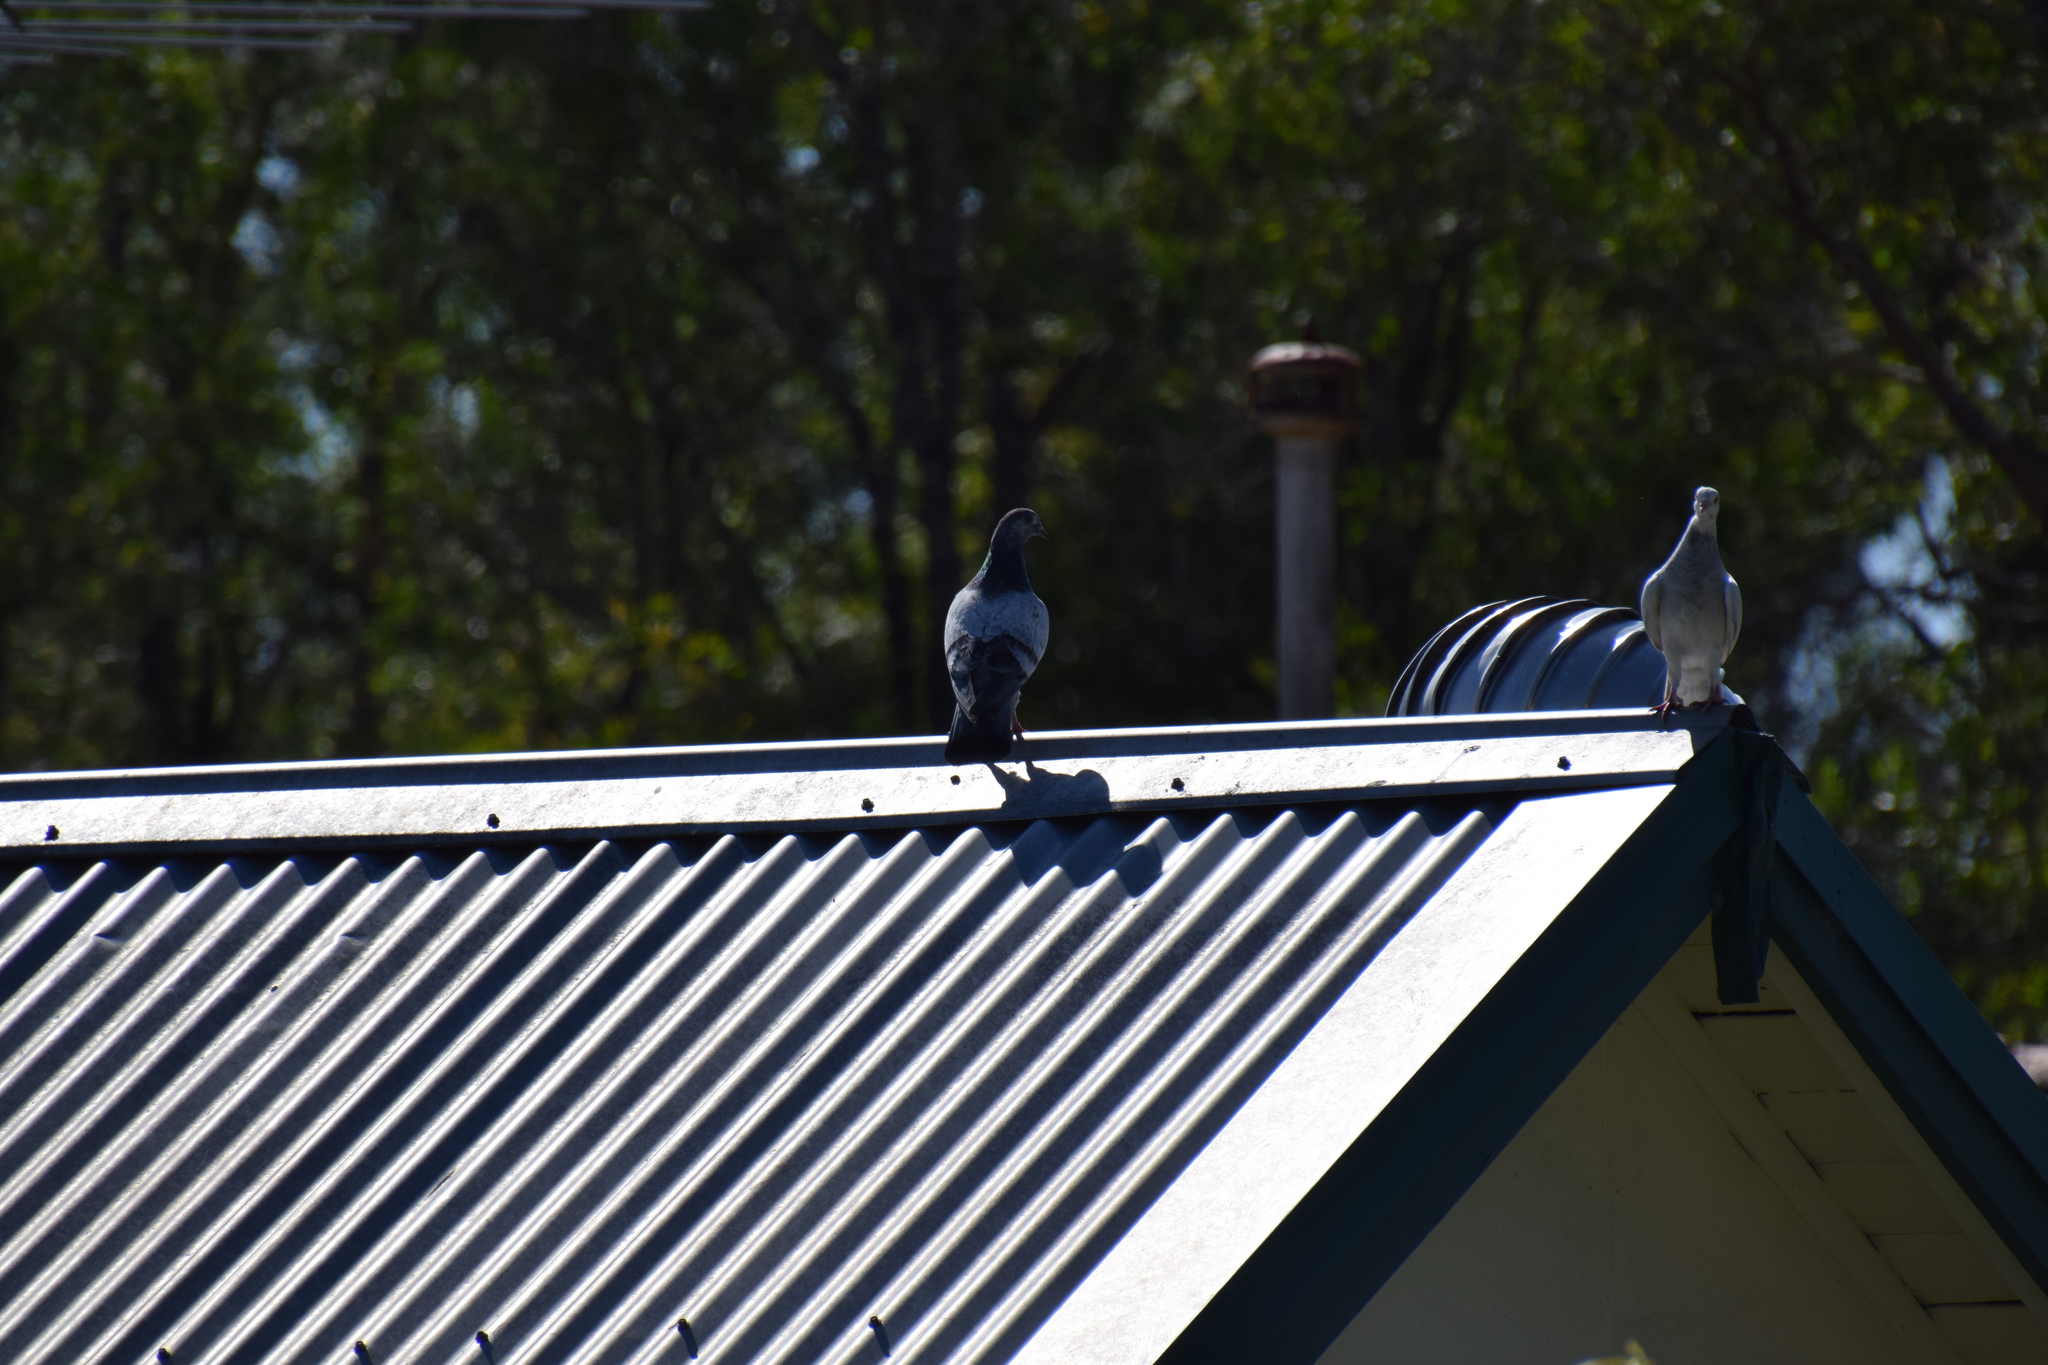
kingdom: Animalia
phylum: Chordata
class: Aves
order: Columbiformes
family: Columbidae
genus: Columba
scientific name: Columba livia
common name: Rock pigeon
